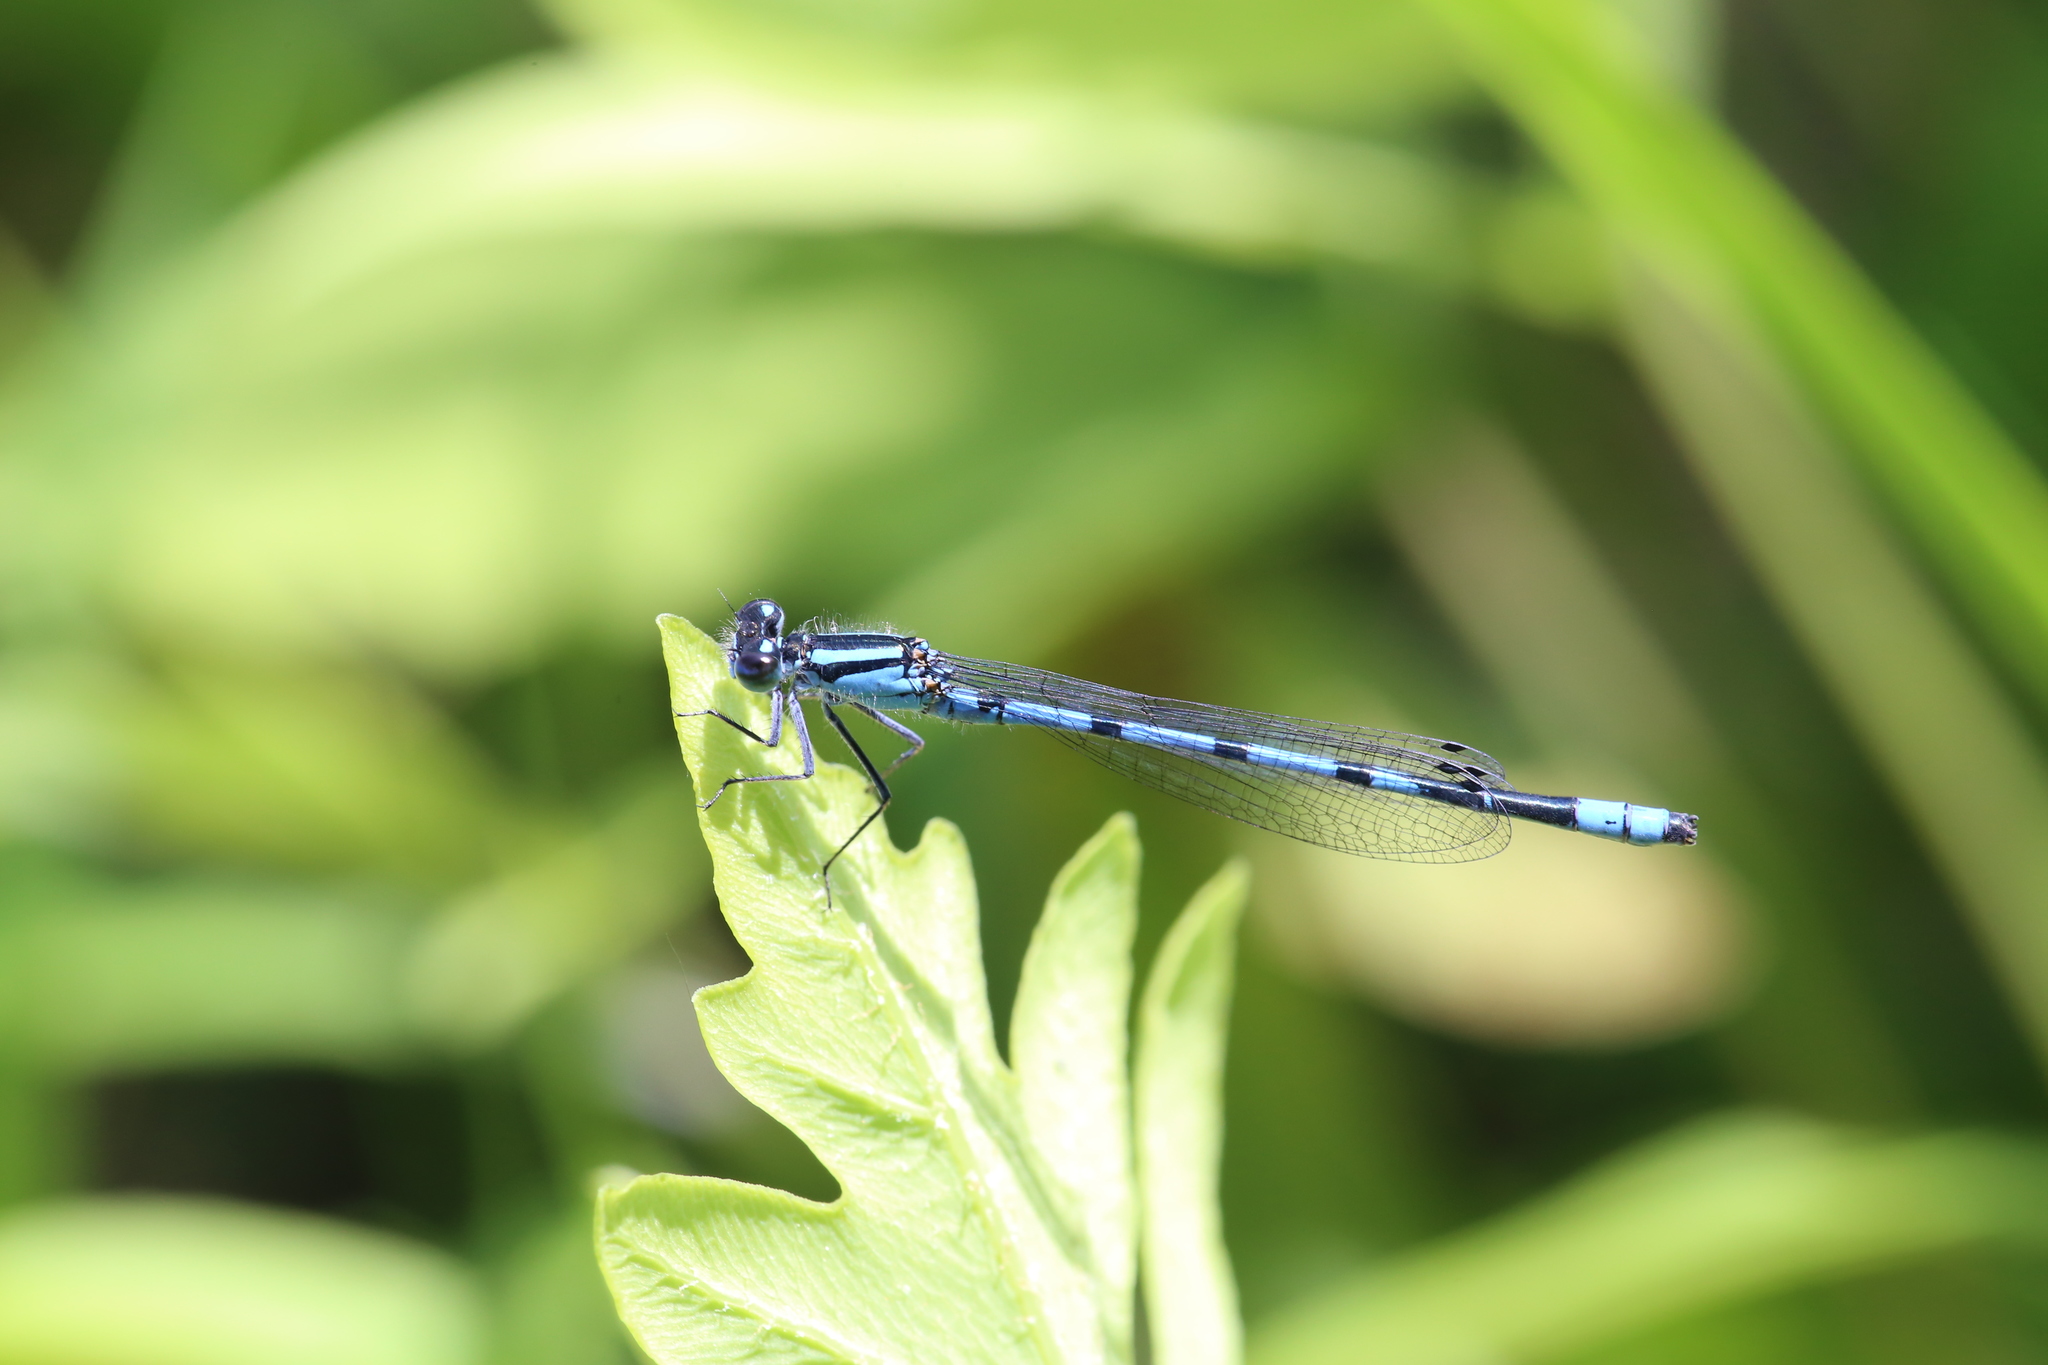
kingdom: Animalia
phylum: Arthropoda
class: Insecta
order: Odonata
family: Coenagrionidae
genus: Enallagma
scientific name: Enallagma ebrium
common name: Marsh bluet
